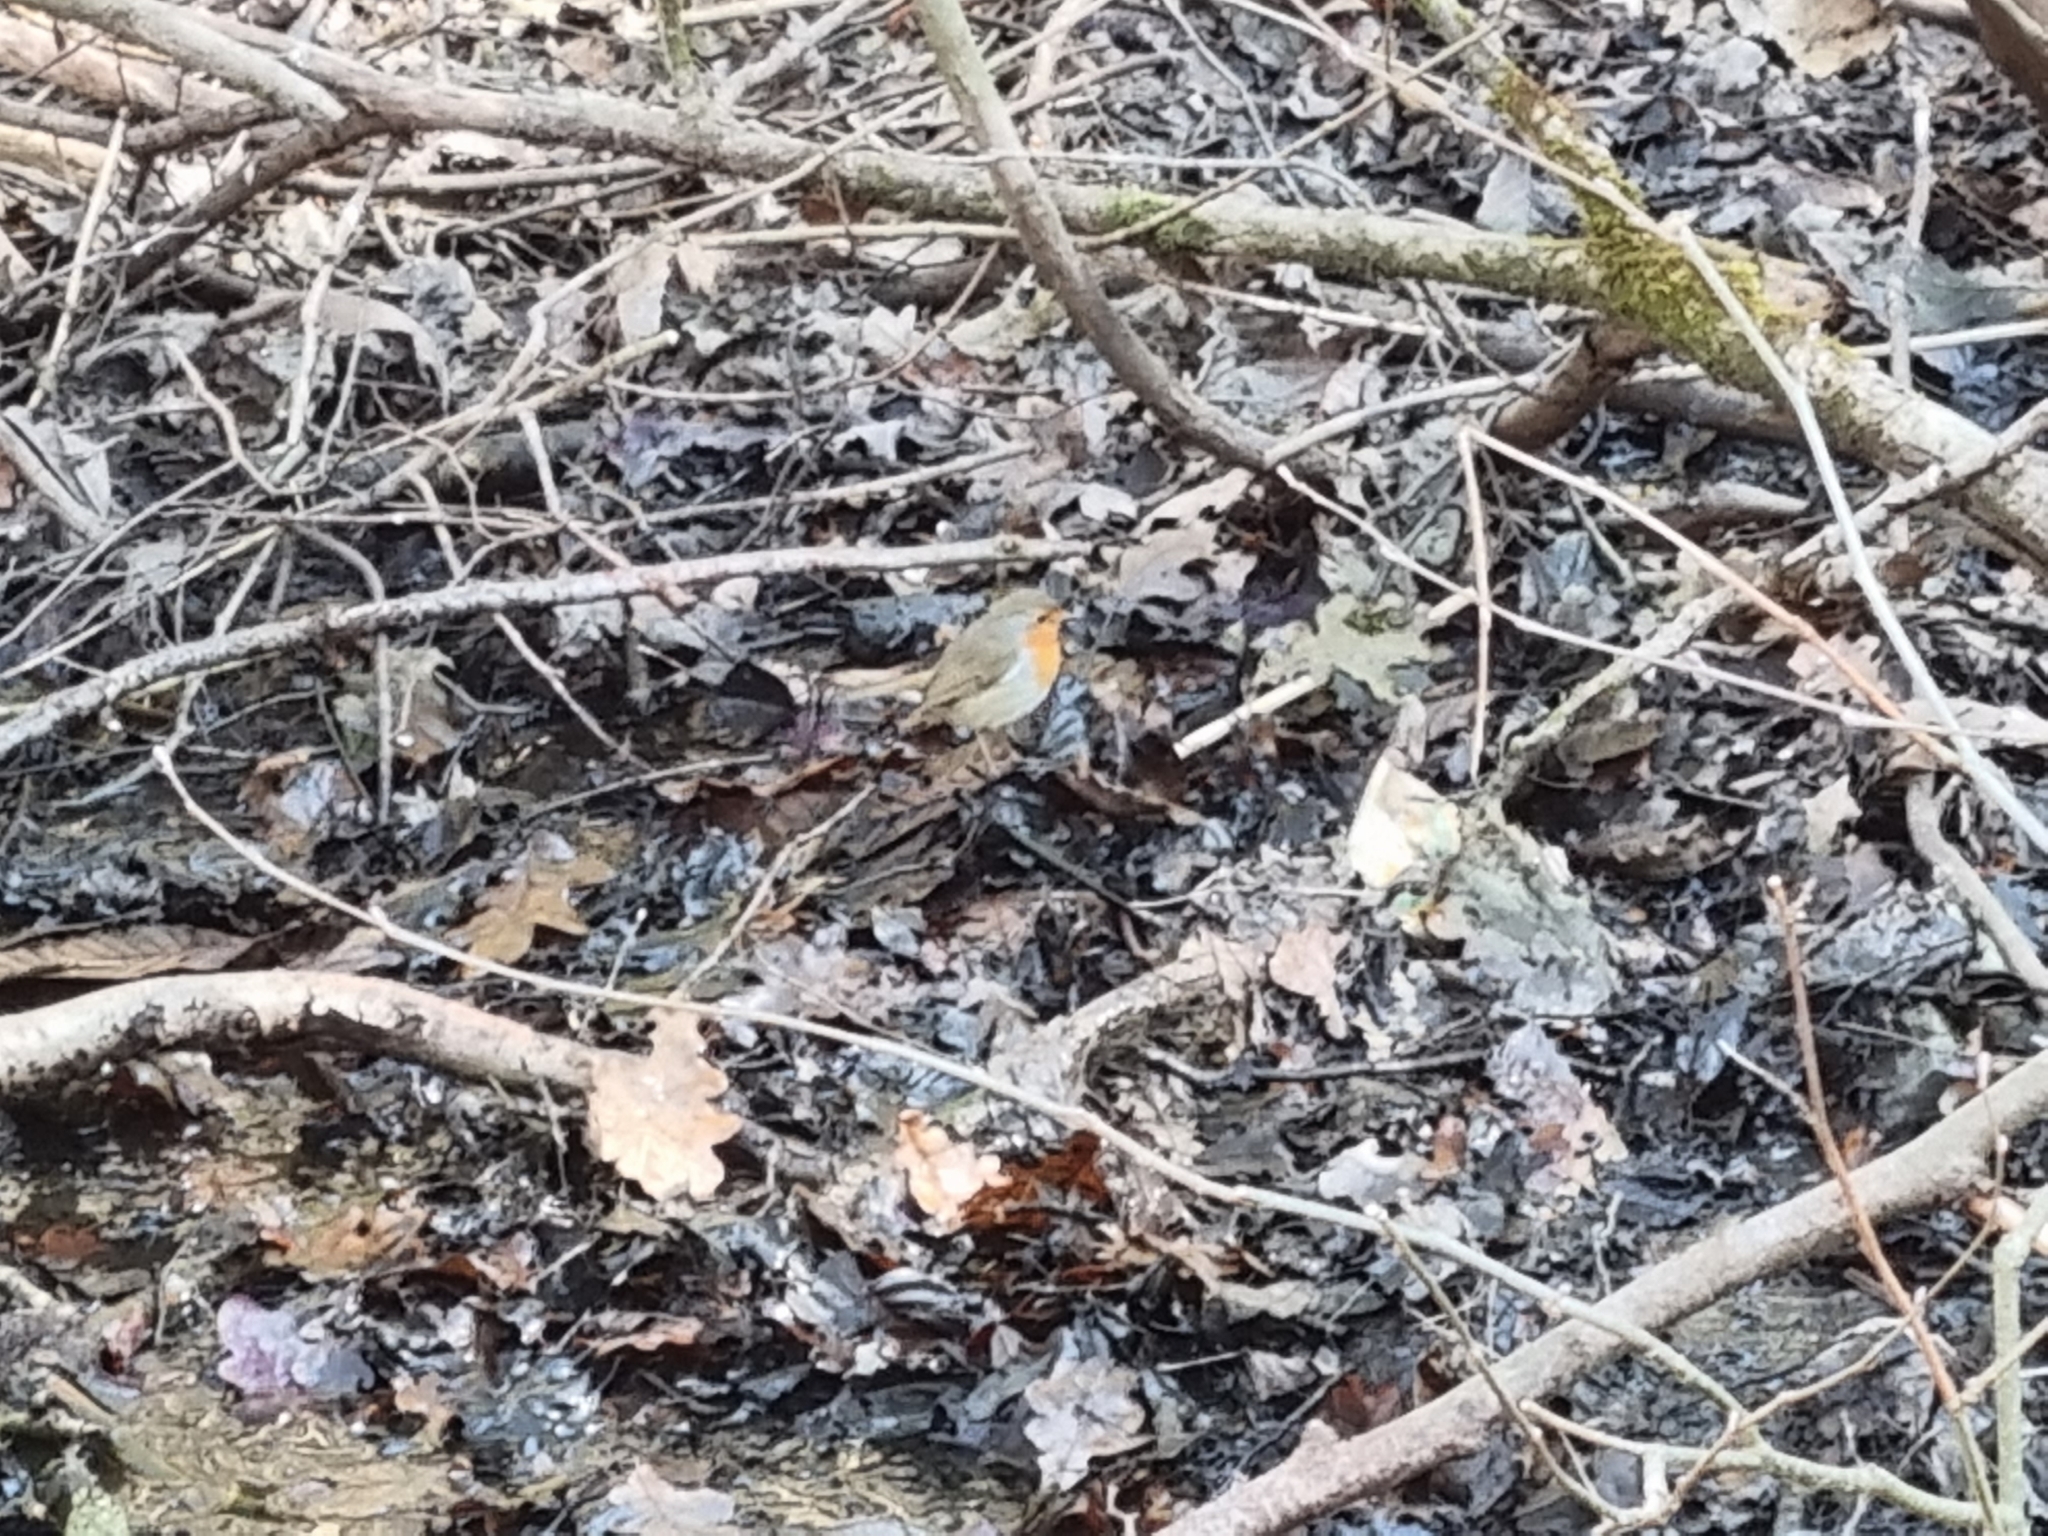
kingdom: Animalia
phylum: Chordata
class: Aves
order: Passeriformes
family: Muscicapidae
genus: Erithacus
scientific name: Erithacus rubecula
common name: European robin
